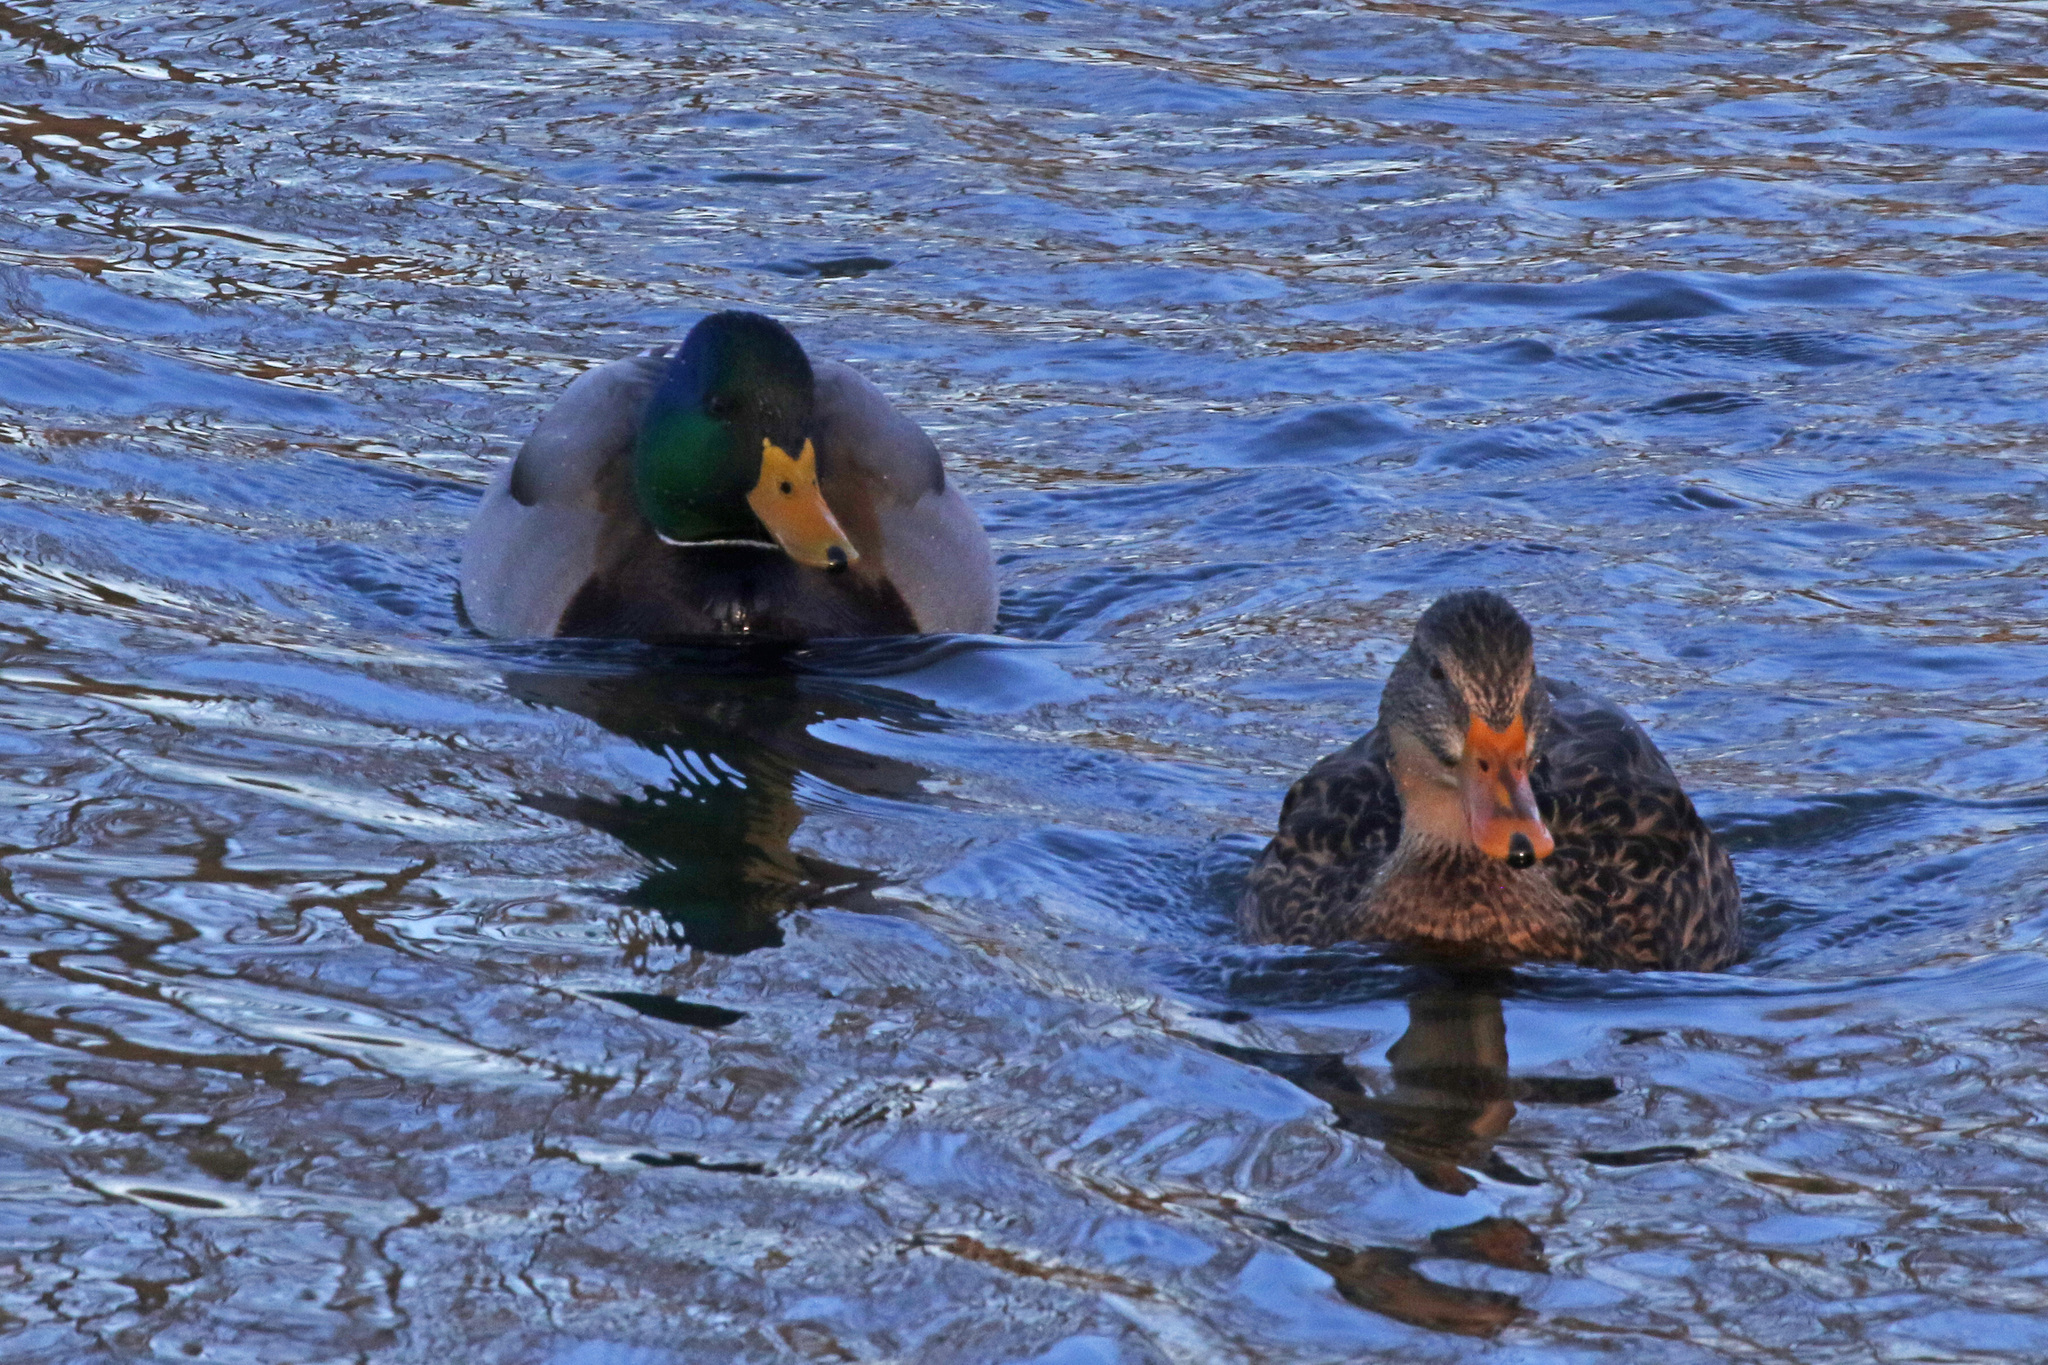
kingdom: Animalia
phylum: Chordata
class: Aves
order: Anseriformes
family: Anatidae
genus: Anas
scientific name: Anas platyrhynchos
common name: Mallard
